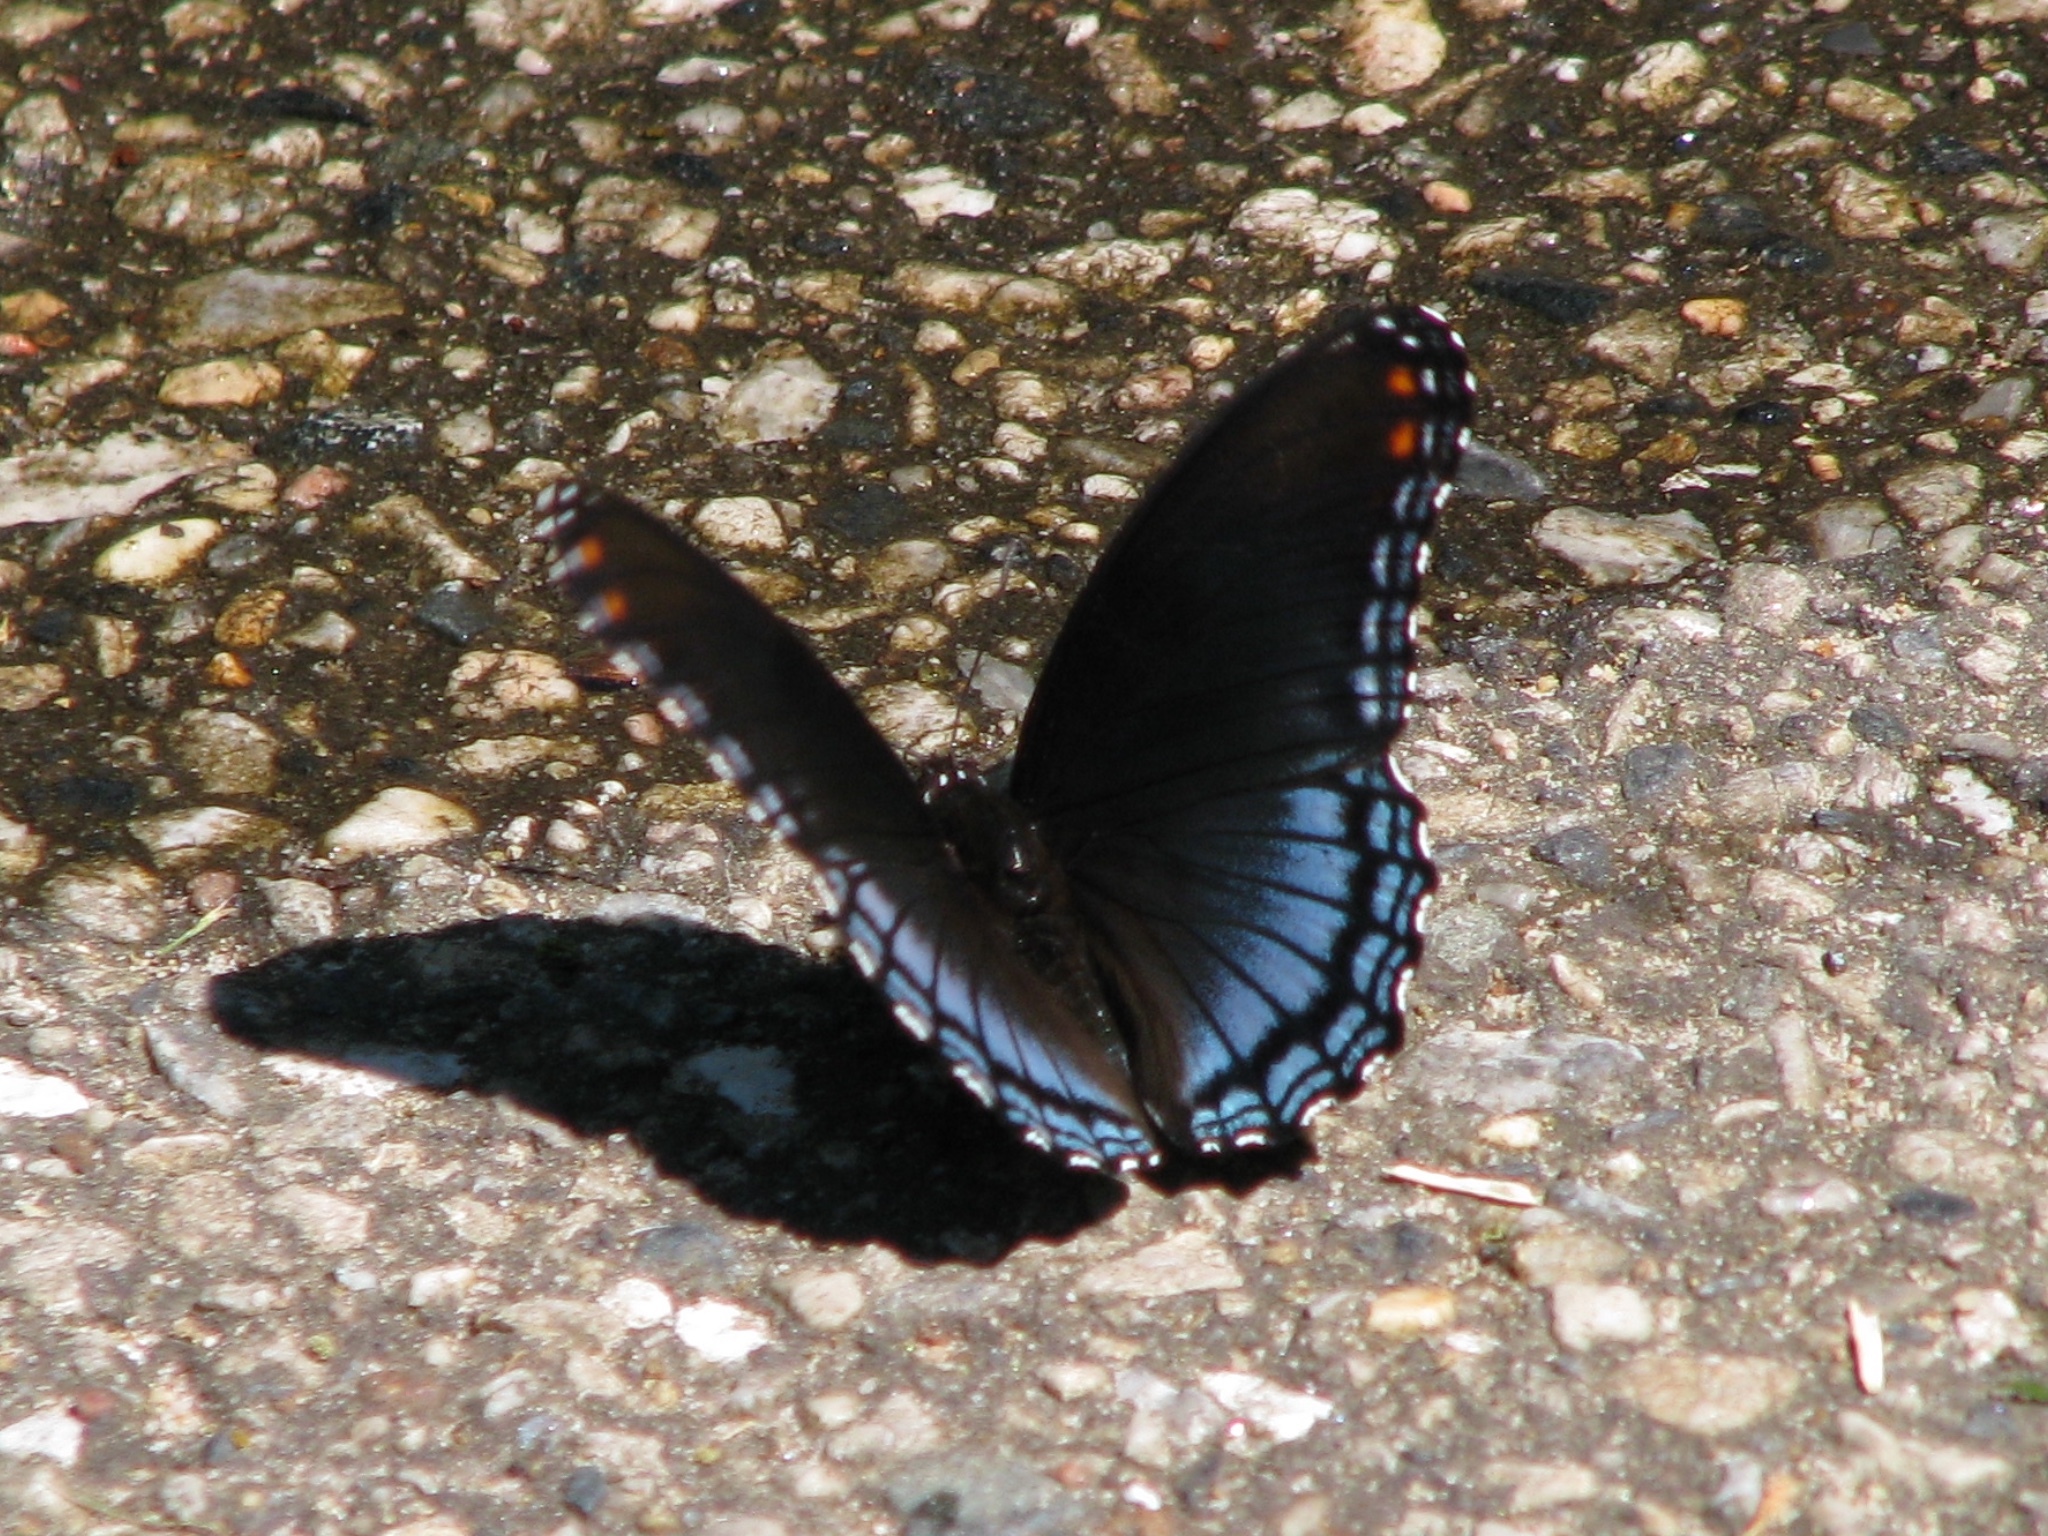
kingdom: Animalia
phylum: Arthropoda
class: Insecta
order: Lepidoptera
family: Nymphalidae
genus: Limenitis
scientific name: Limenitis astyanax
